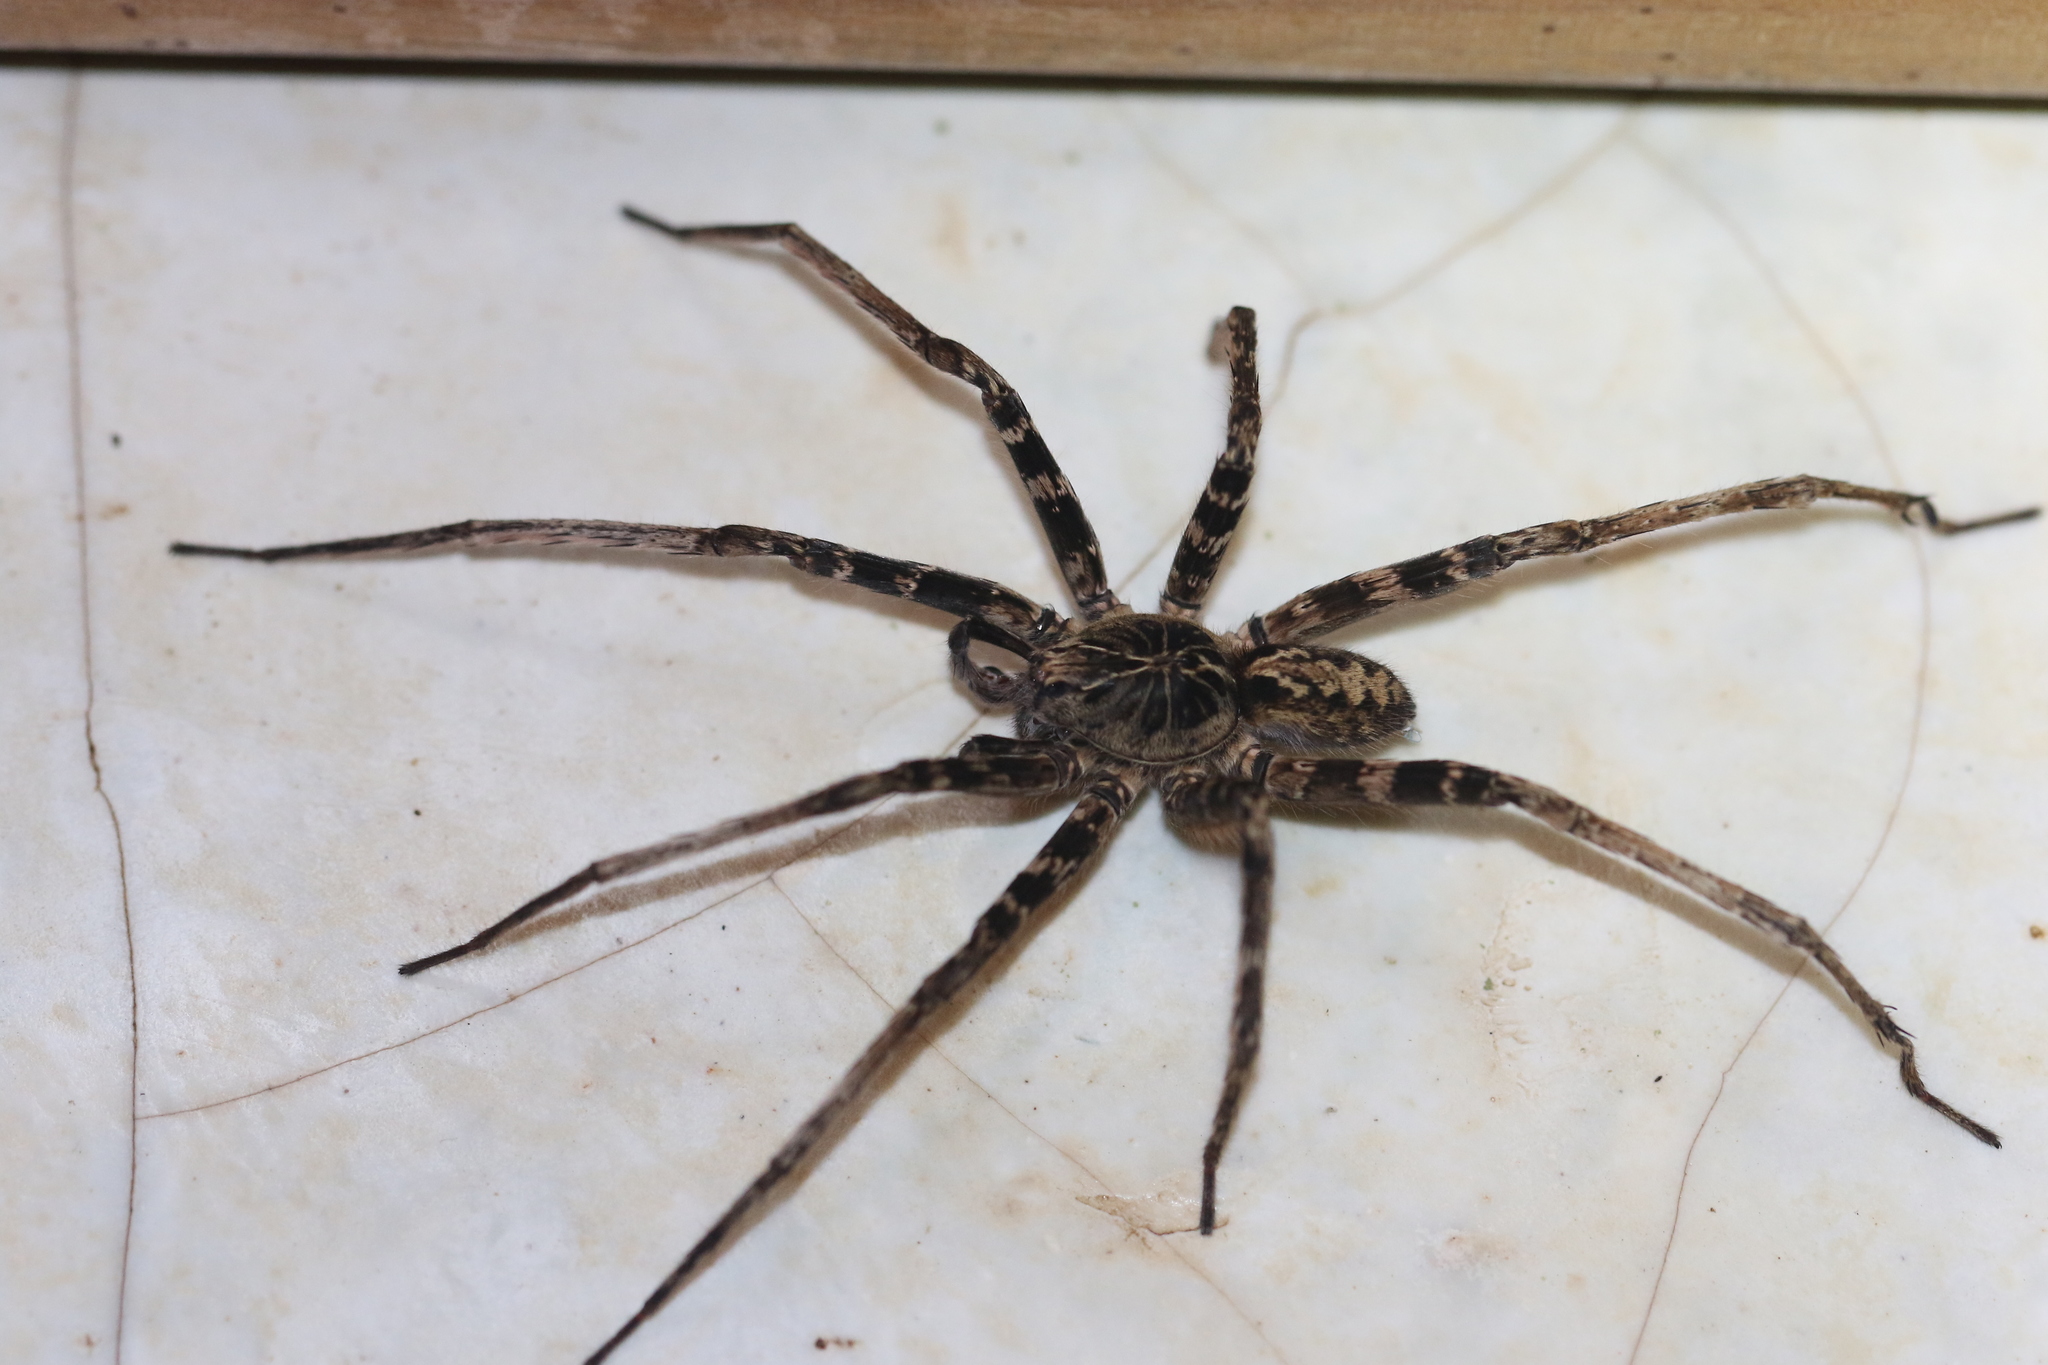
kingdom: Animalia
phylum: Arthropoda
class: Arachnida
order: Araneae
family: Ctenidae
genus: Kiekie
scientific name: Kiekie antioquia
